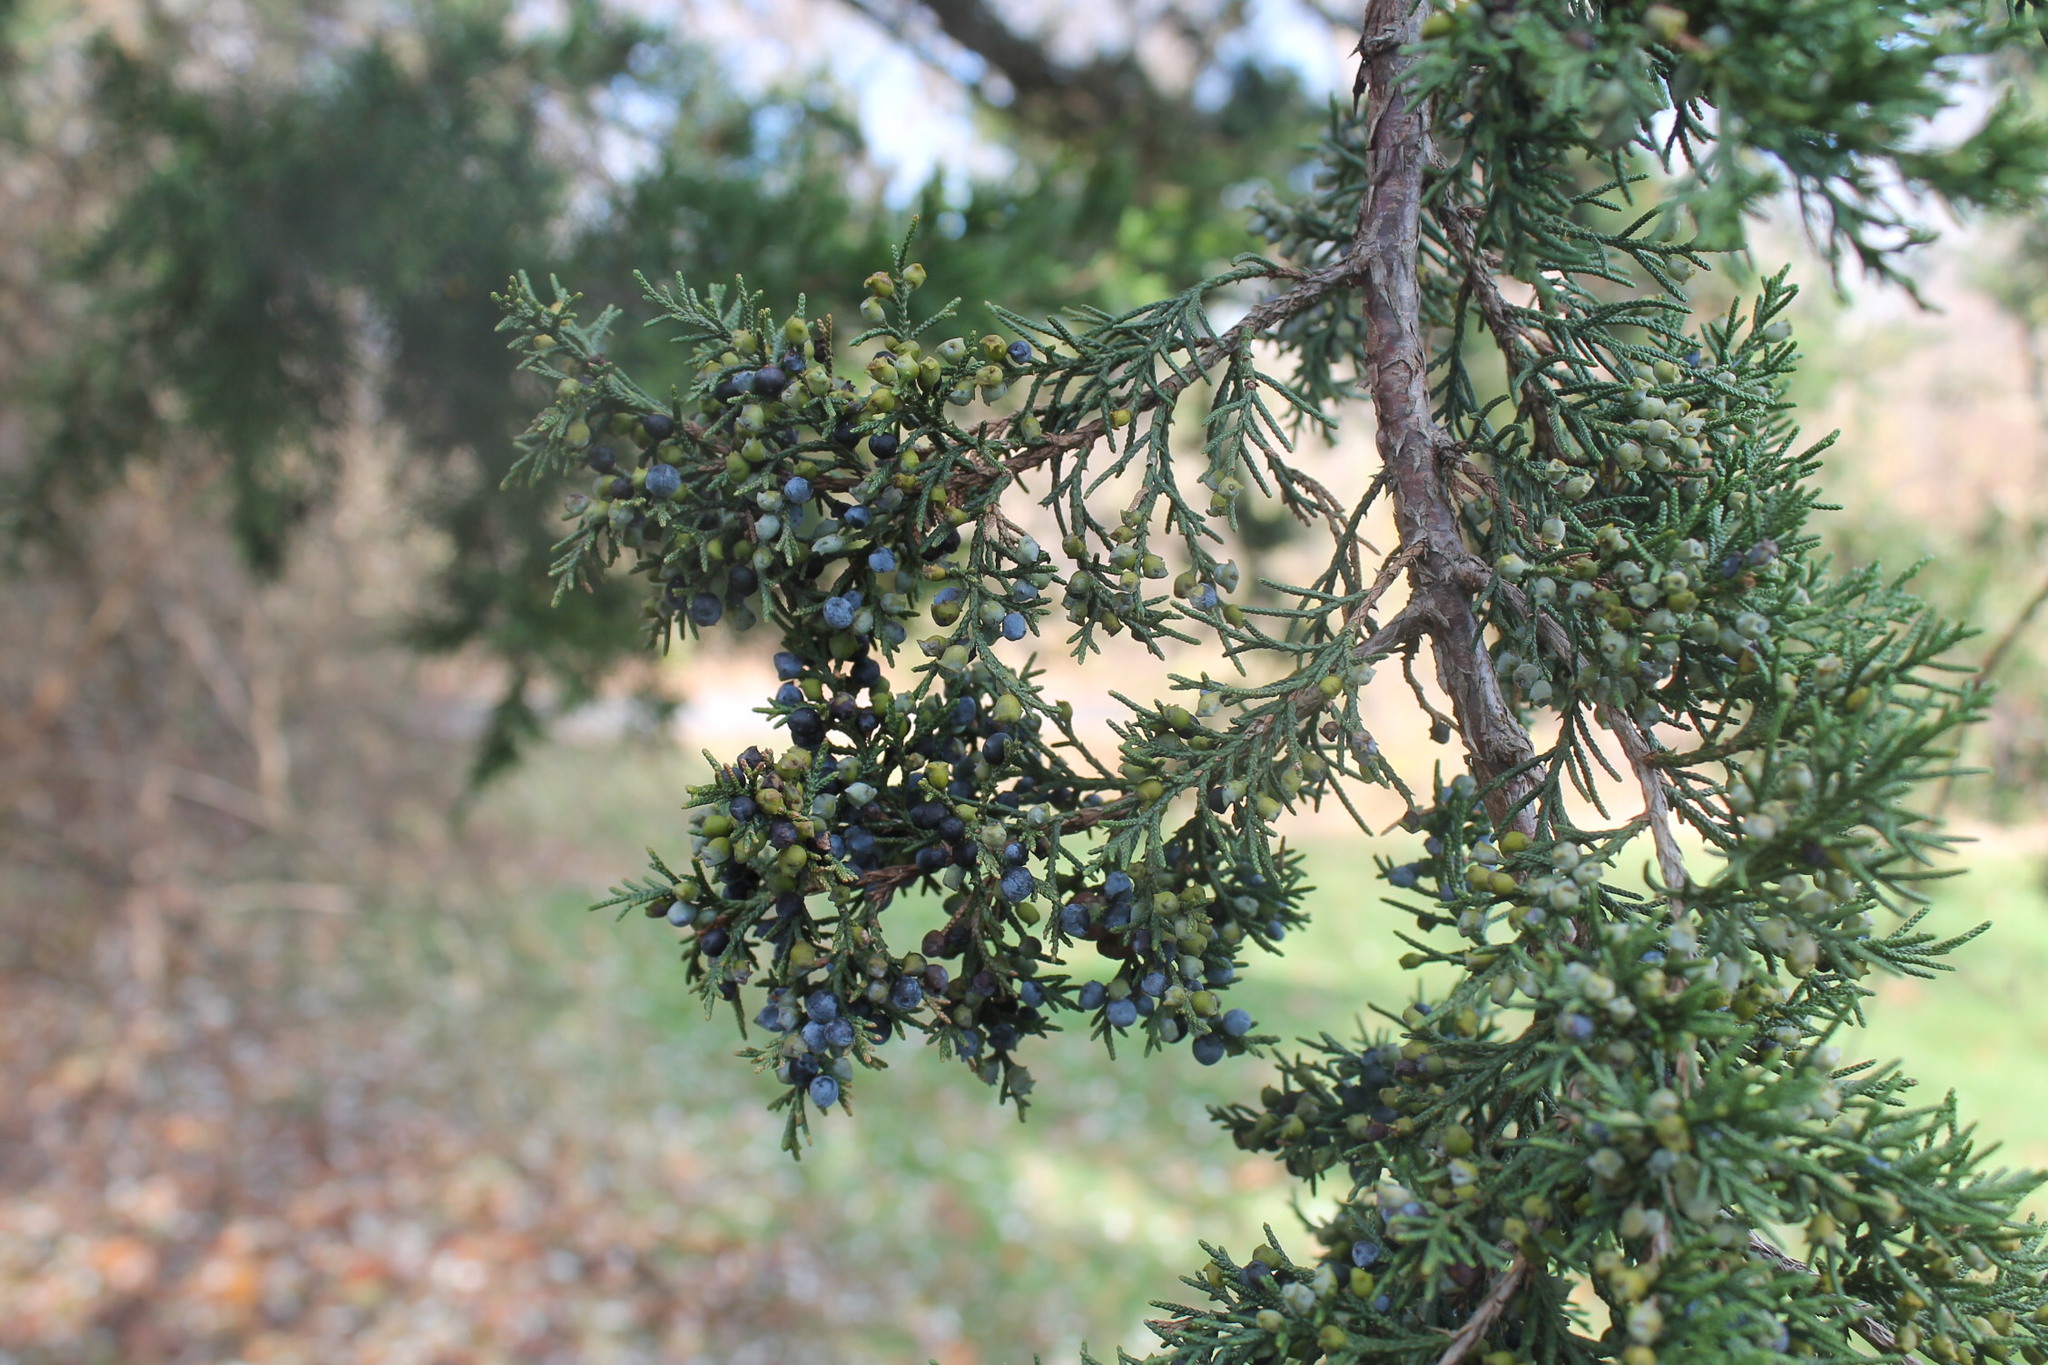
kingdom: Plantae
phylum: Tracheophyta
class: Pinopsida
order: Pinales
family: Cupressaceae
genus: Juniperus
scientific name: Juniperus virginiana
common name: Red juniper
